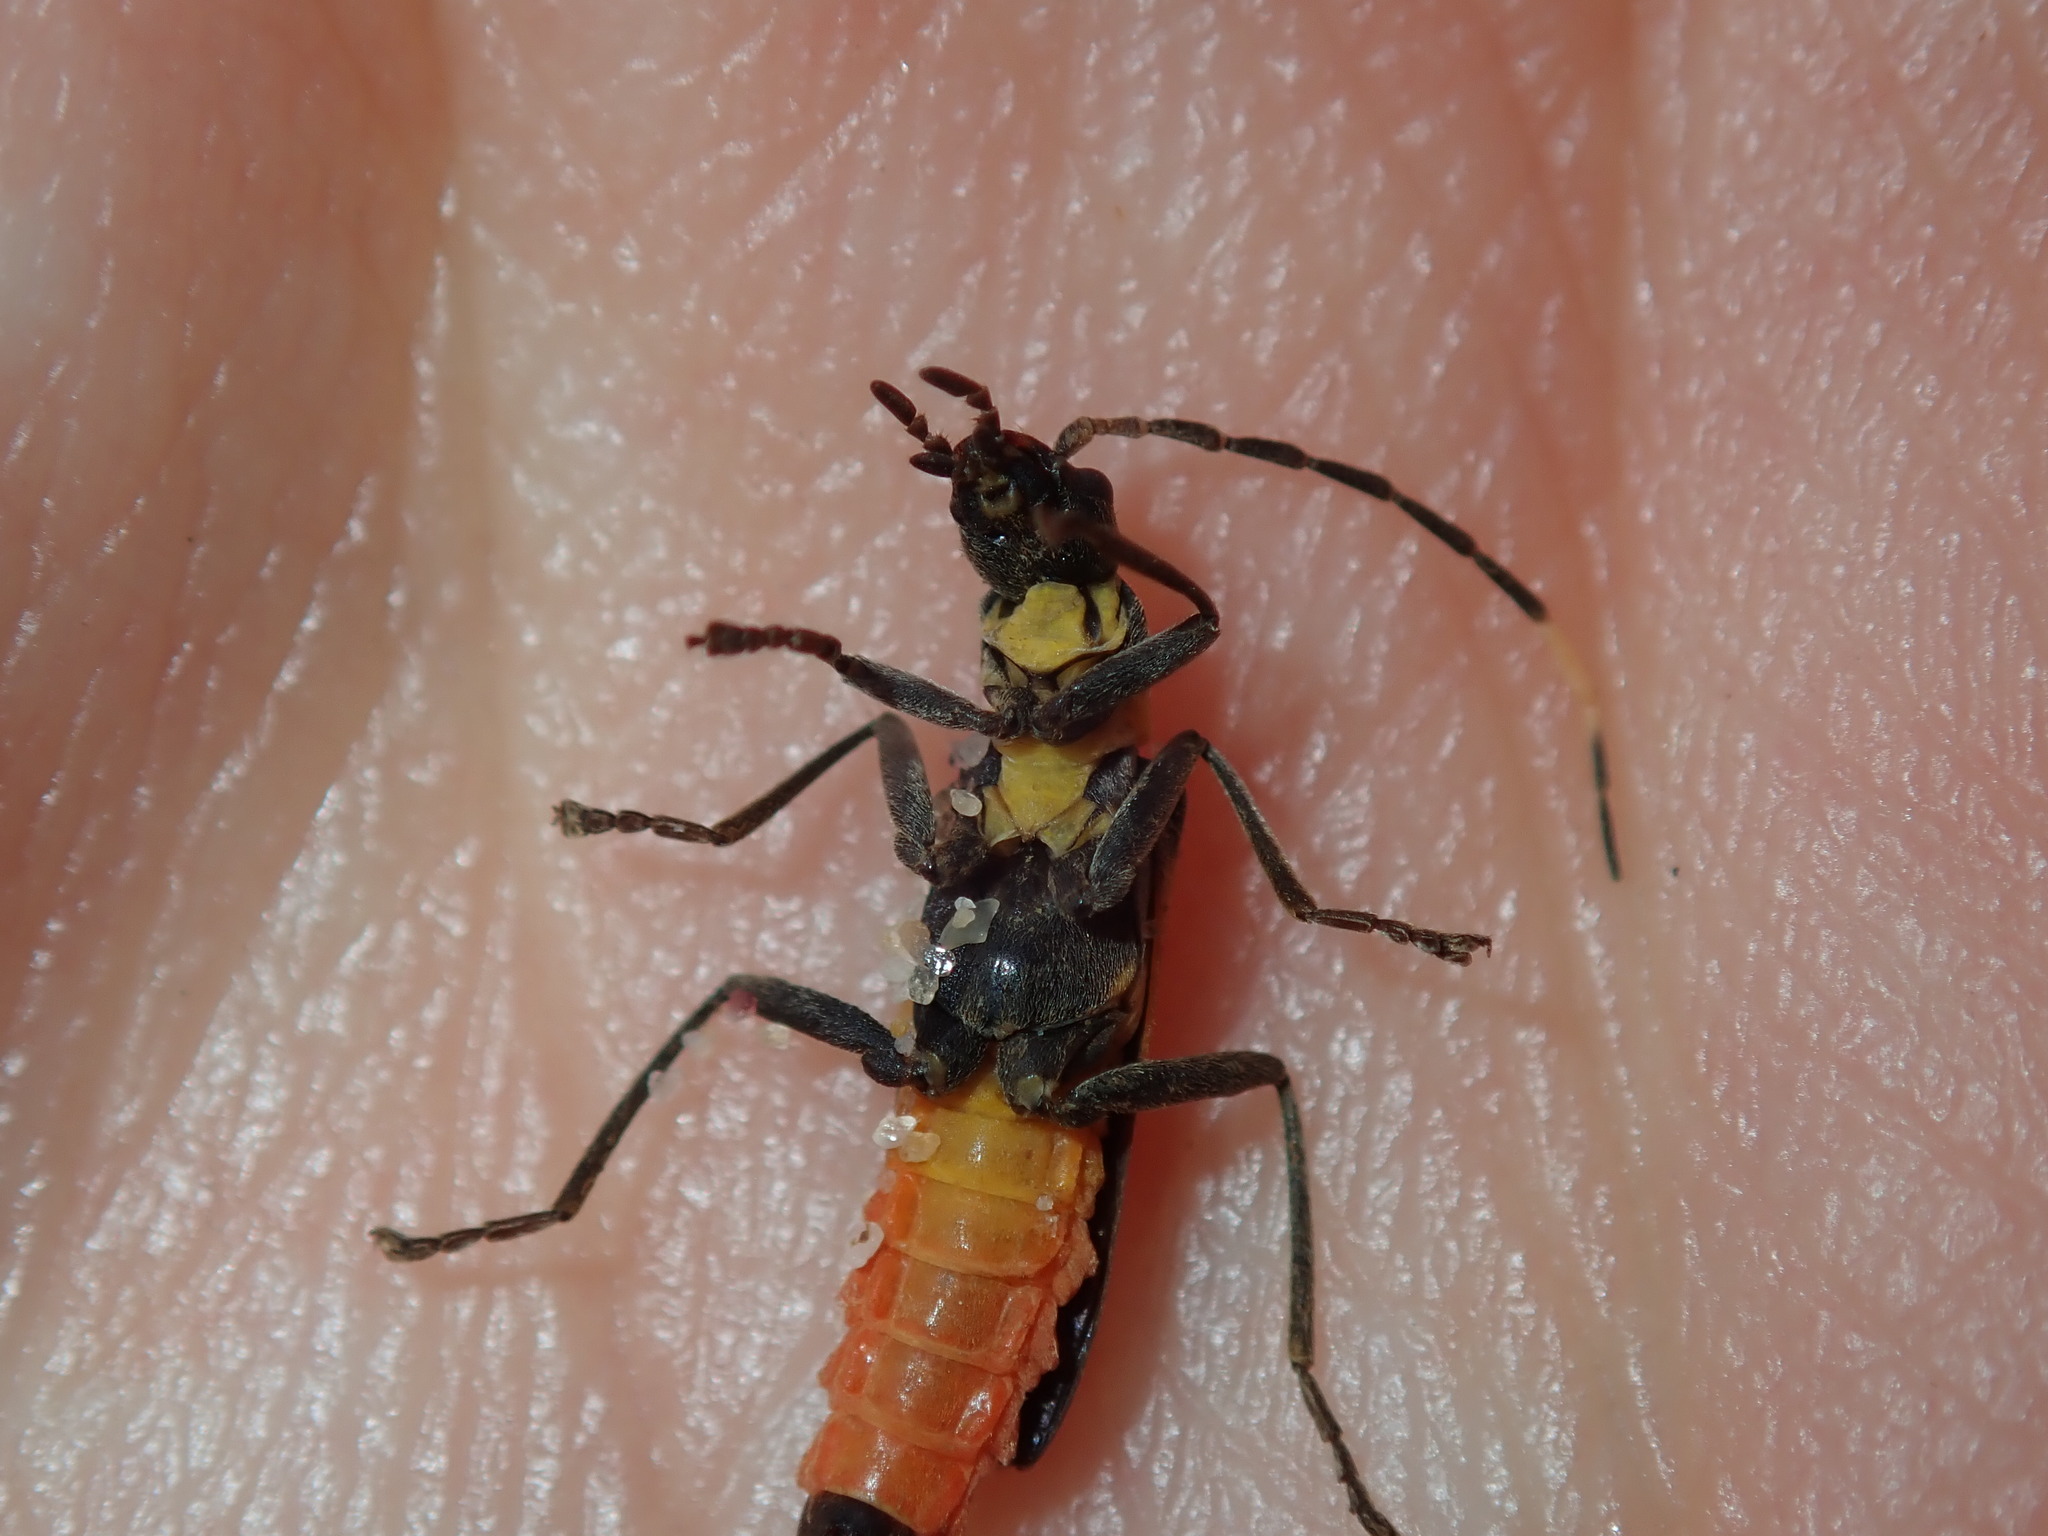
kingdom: Animalia
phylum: Arthropoda
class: Insecta
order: Coleoptera
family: Cantharidae
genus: Chauliognathus
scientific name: Chauliognathus
